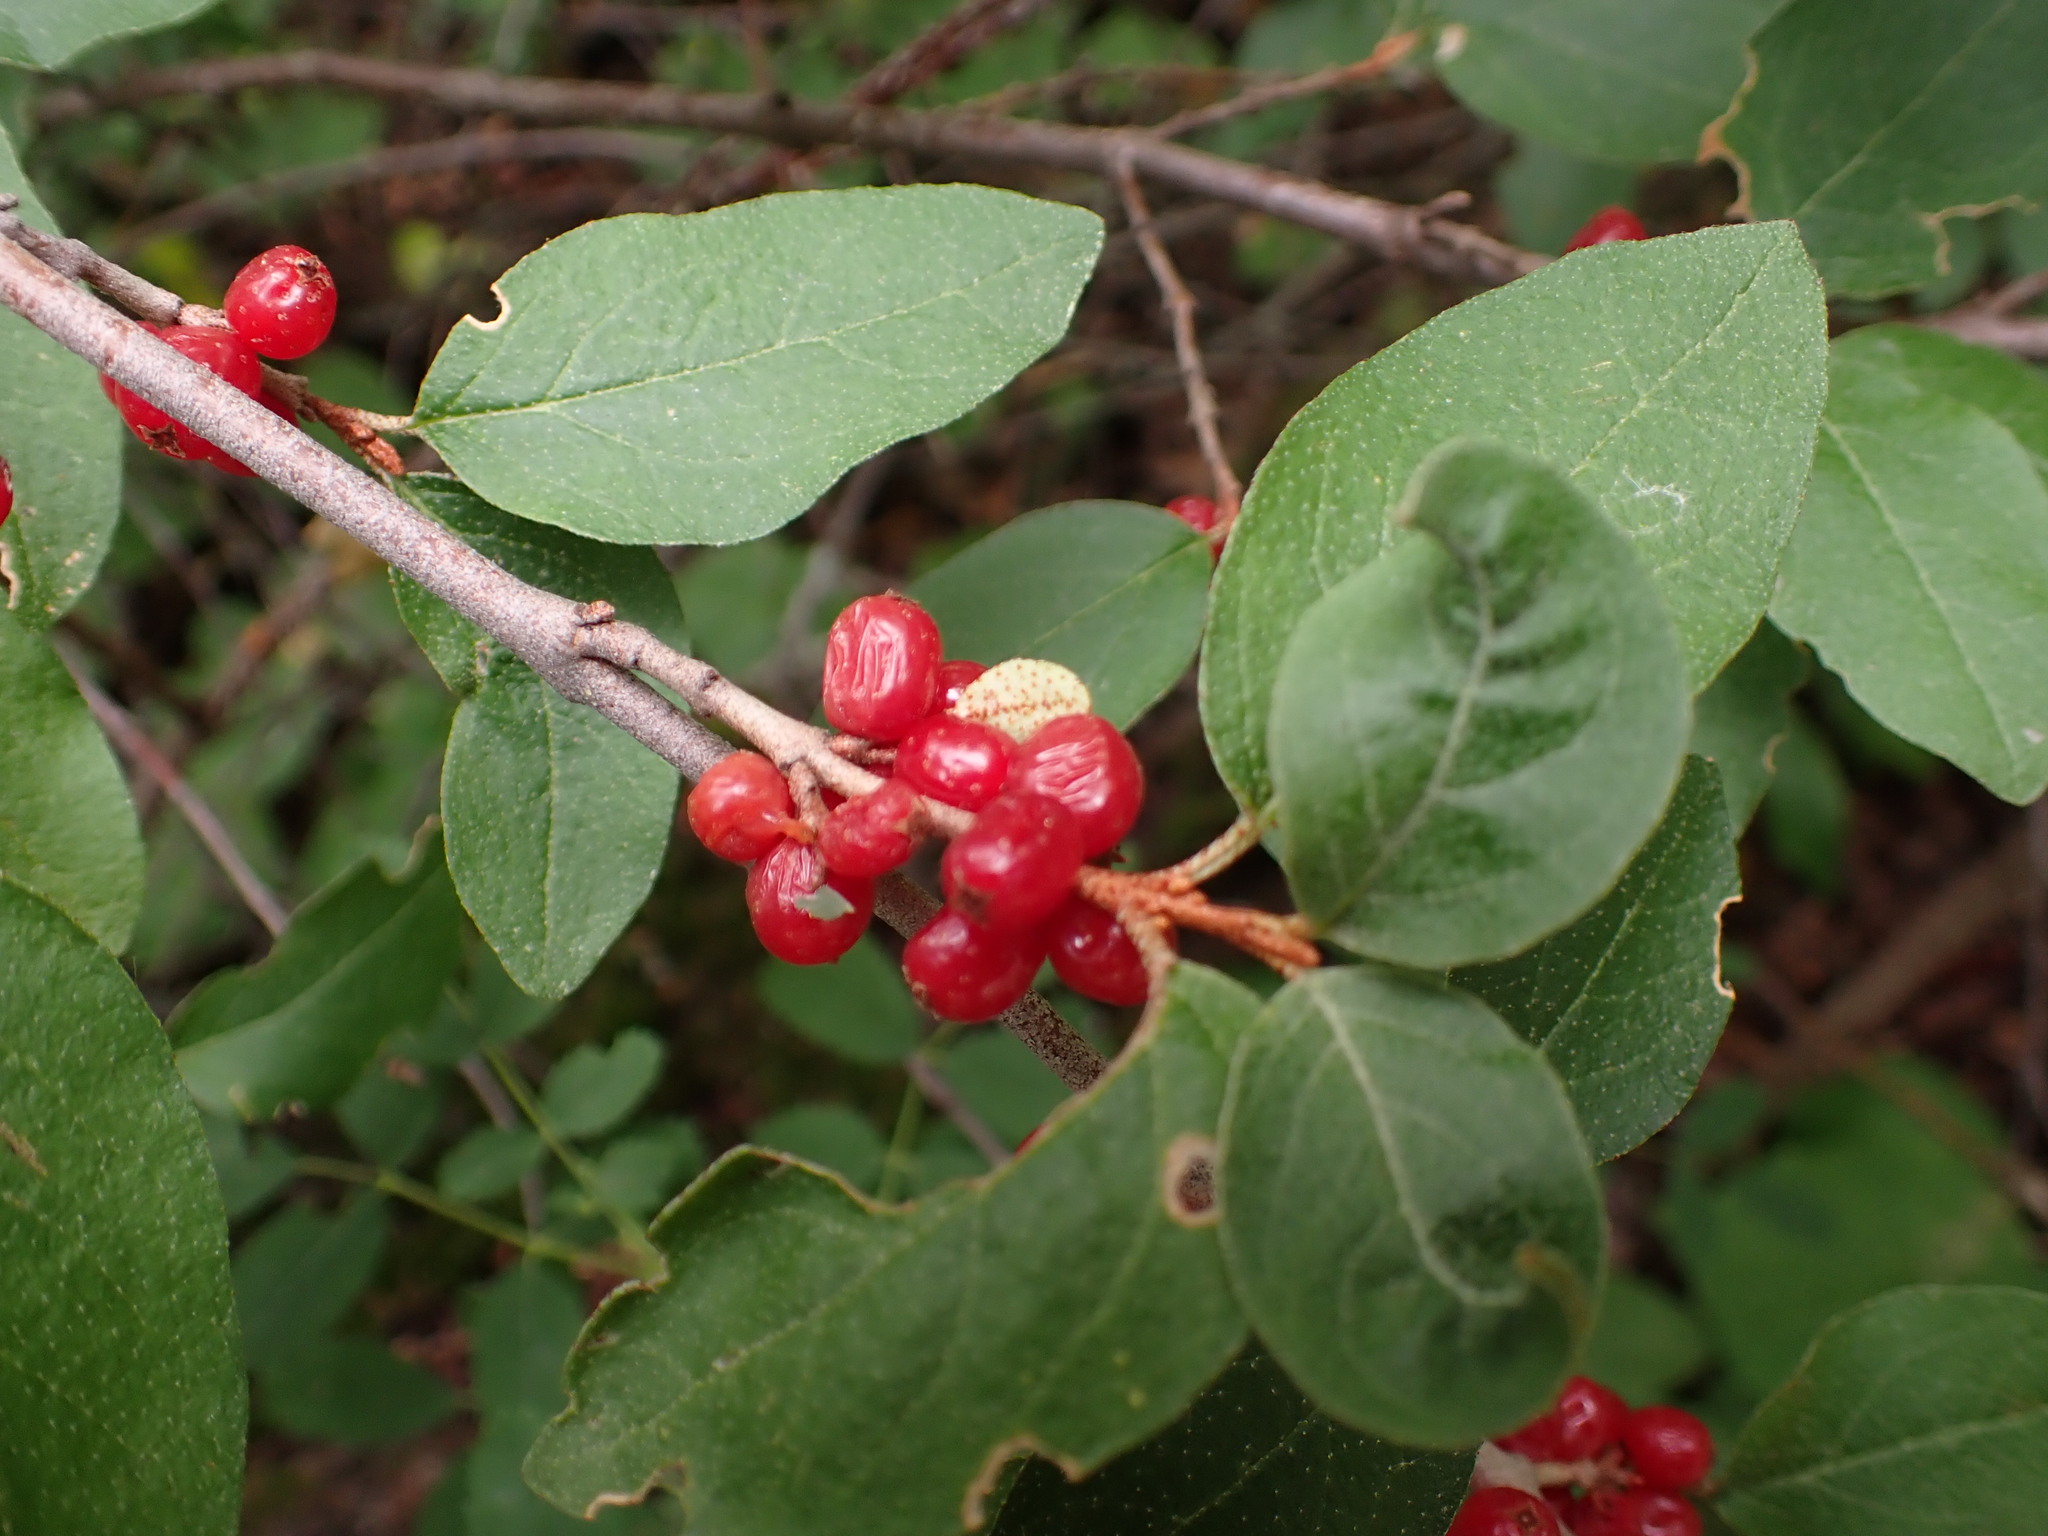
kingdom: Plantae
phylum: Tracheophyta
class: Magnoliopsida
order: Rosales
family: Elaeagnaceae
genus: Shepherdia
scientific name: Shepherdia canadensis
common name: Soapberry
